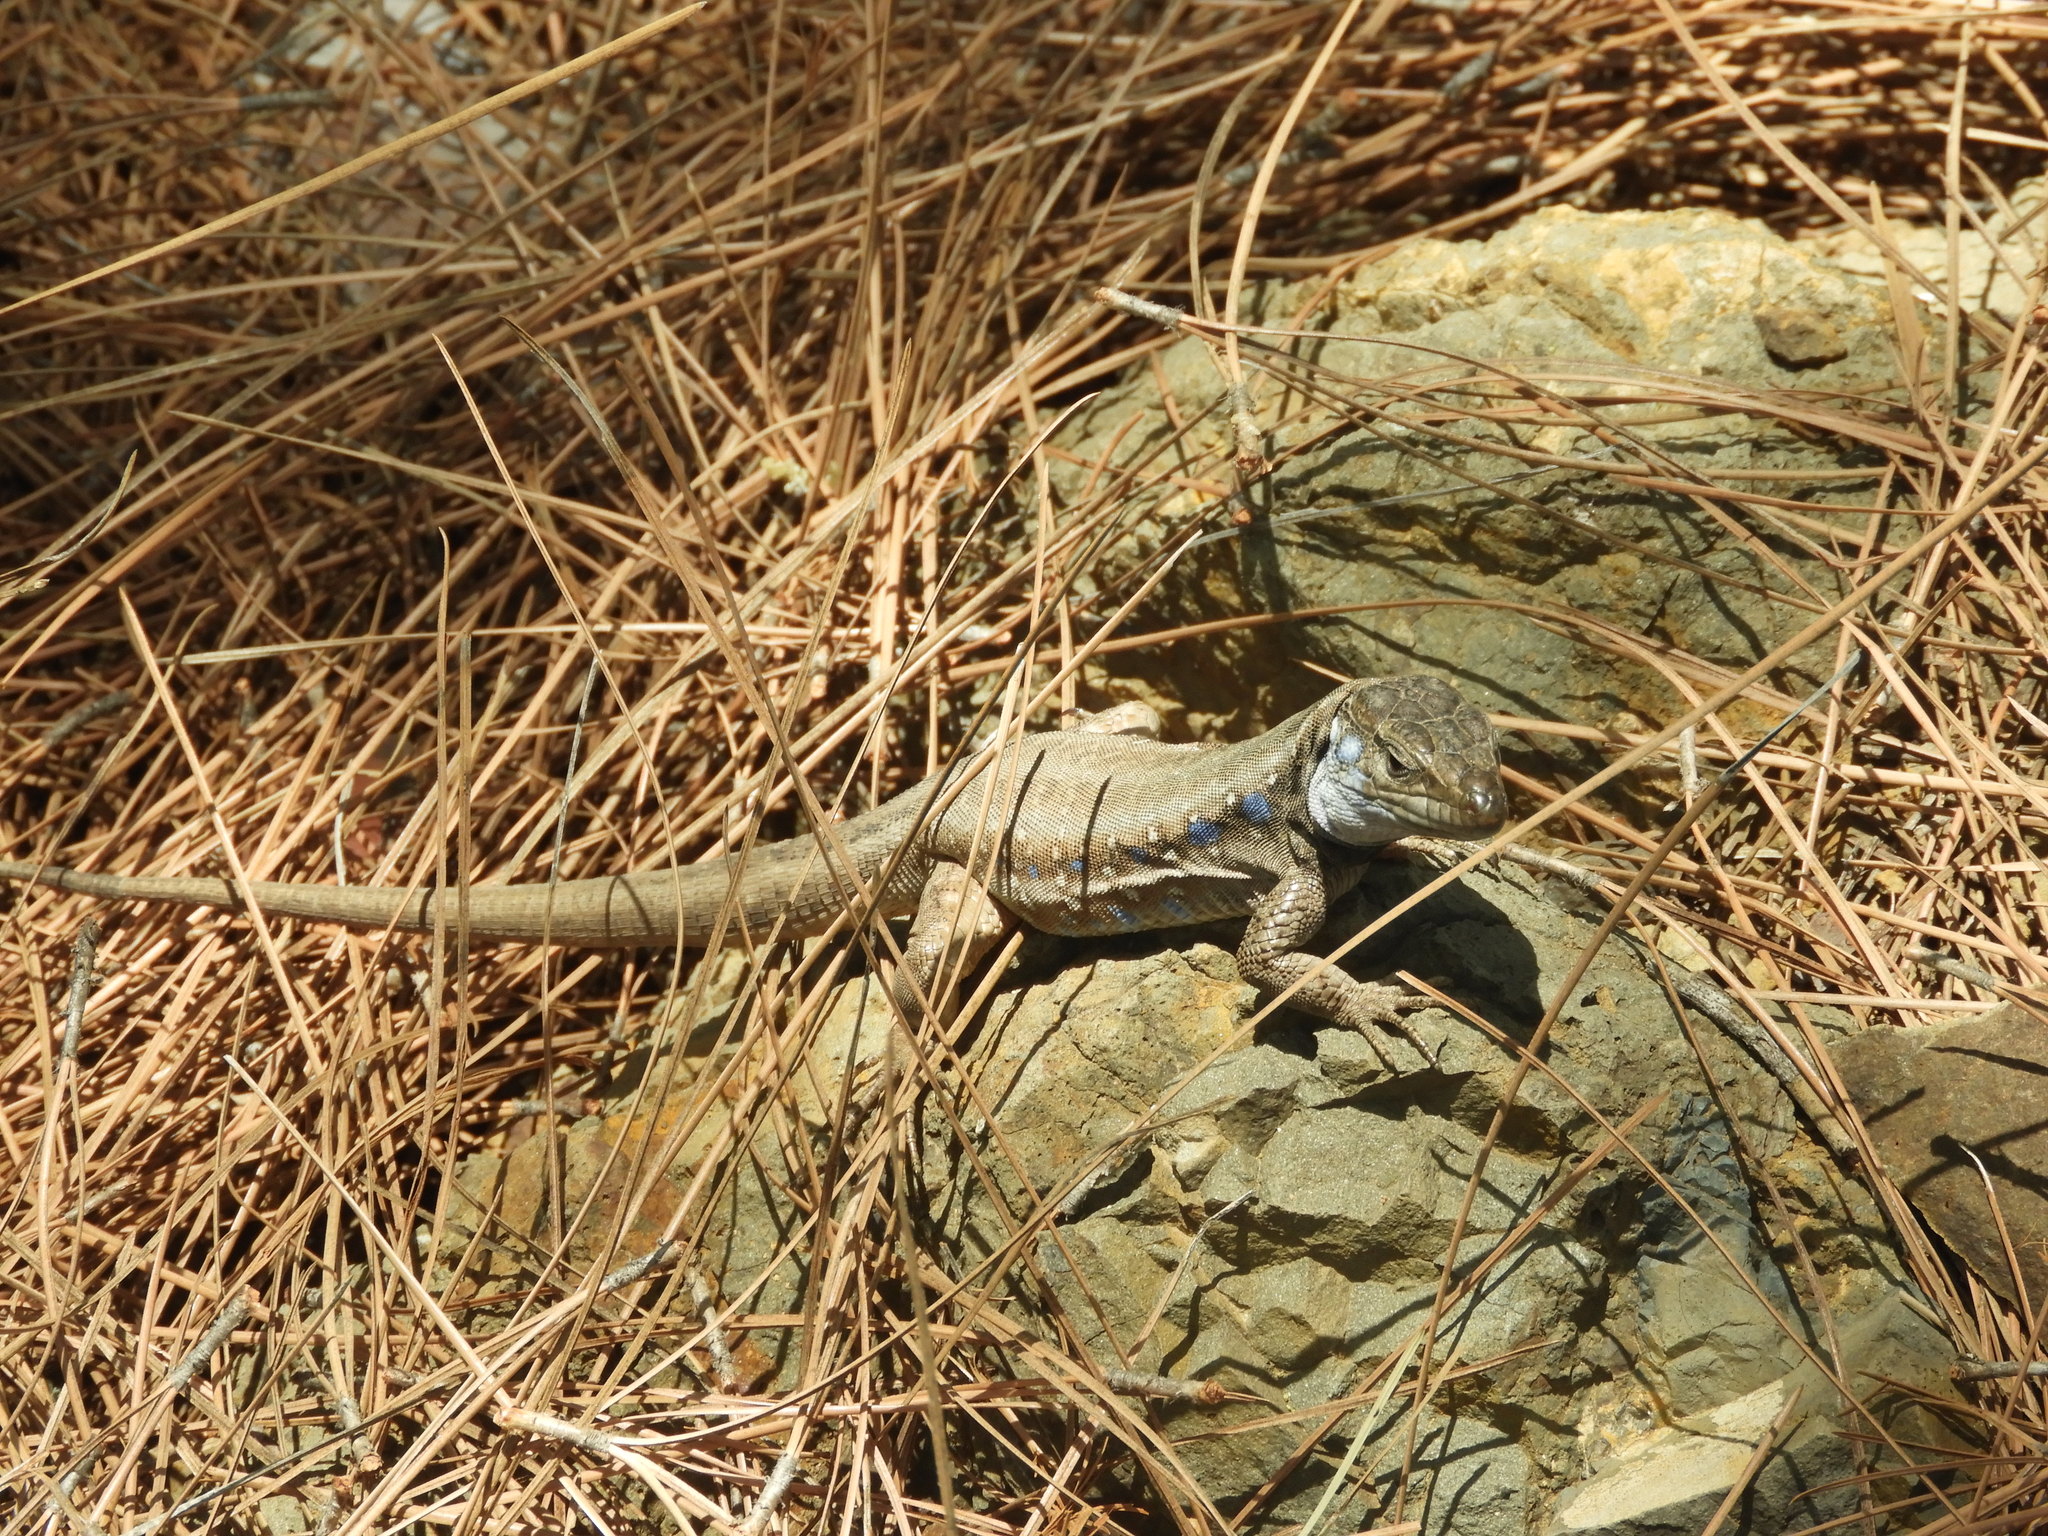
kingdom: Animalia
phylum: Chordata
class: Squamata
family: Lacertidae
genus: Gallotia
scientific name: Gallotia galloti
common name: Gallot's lizard
